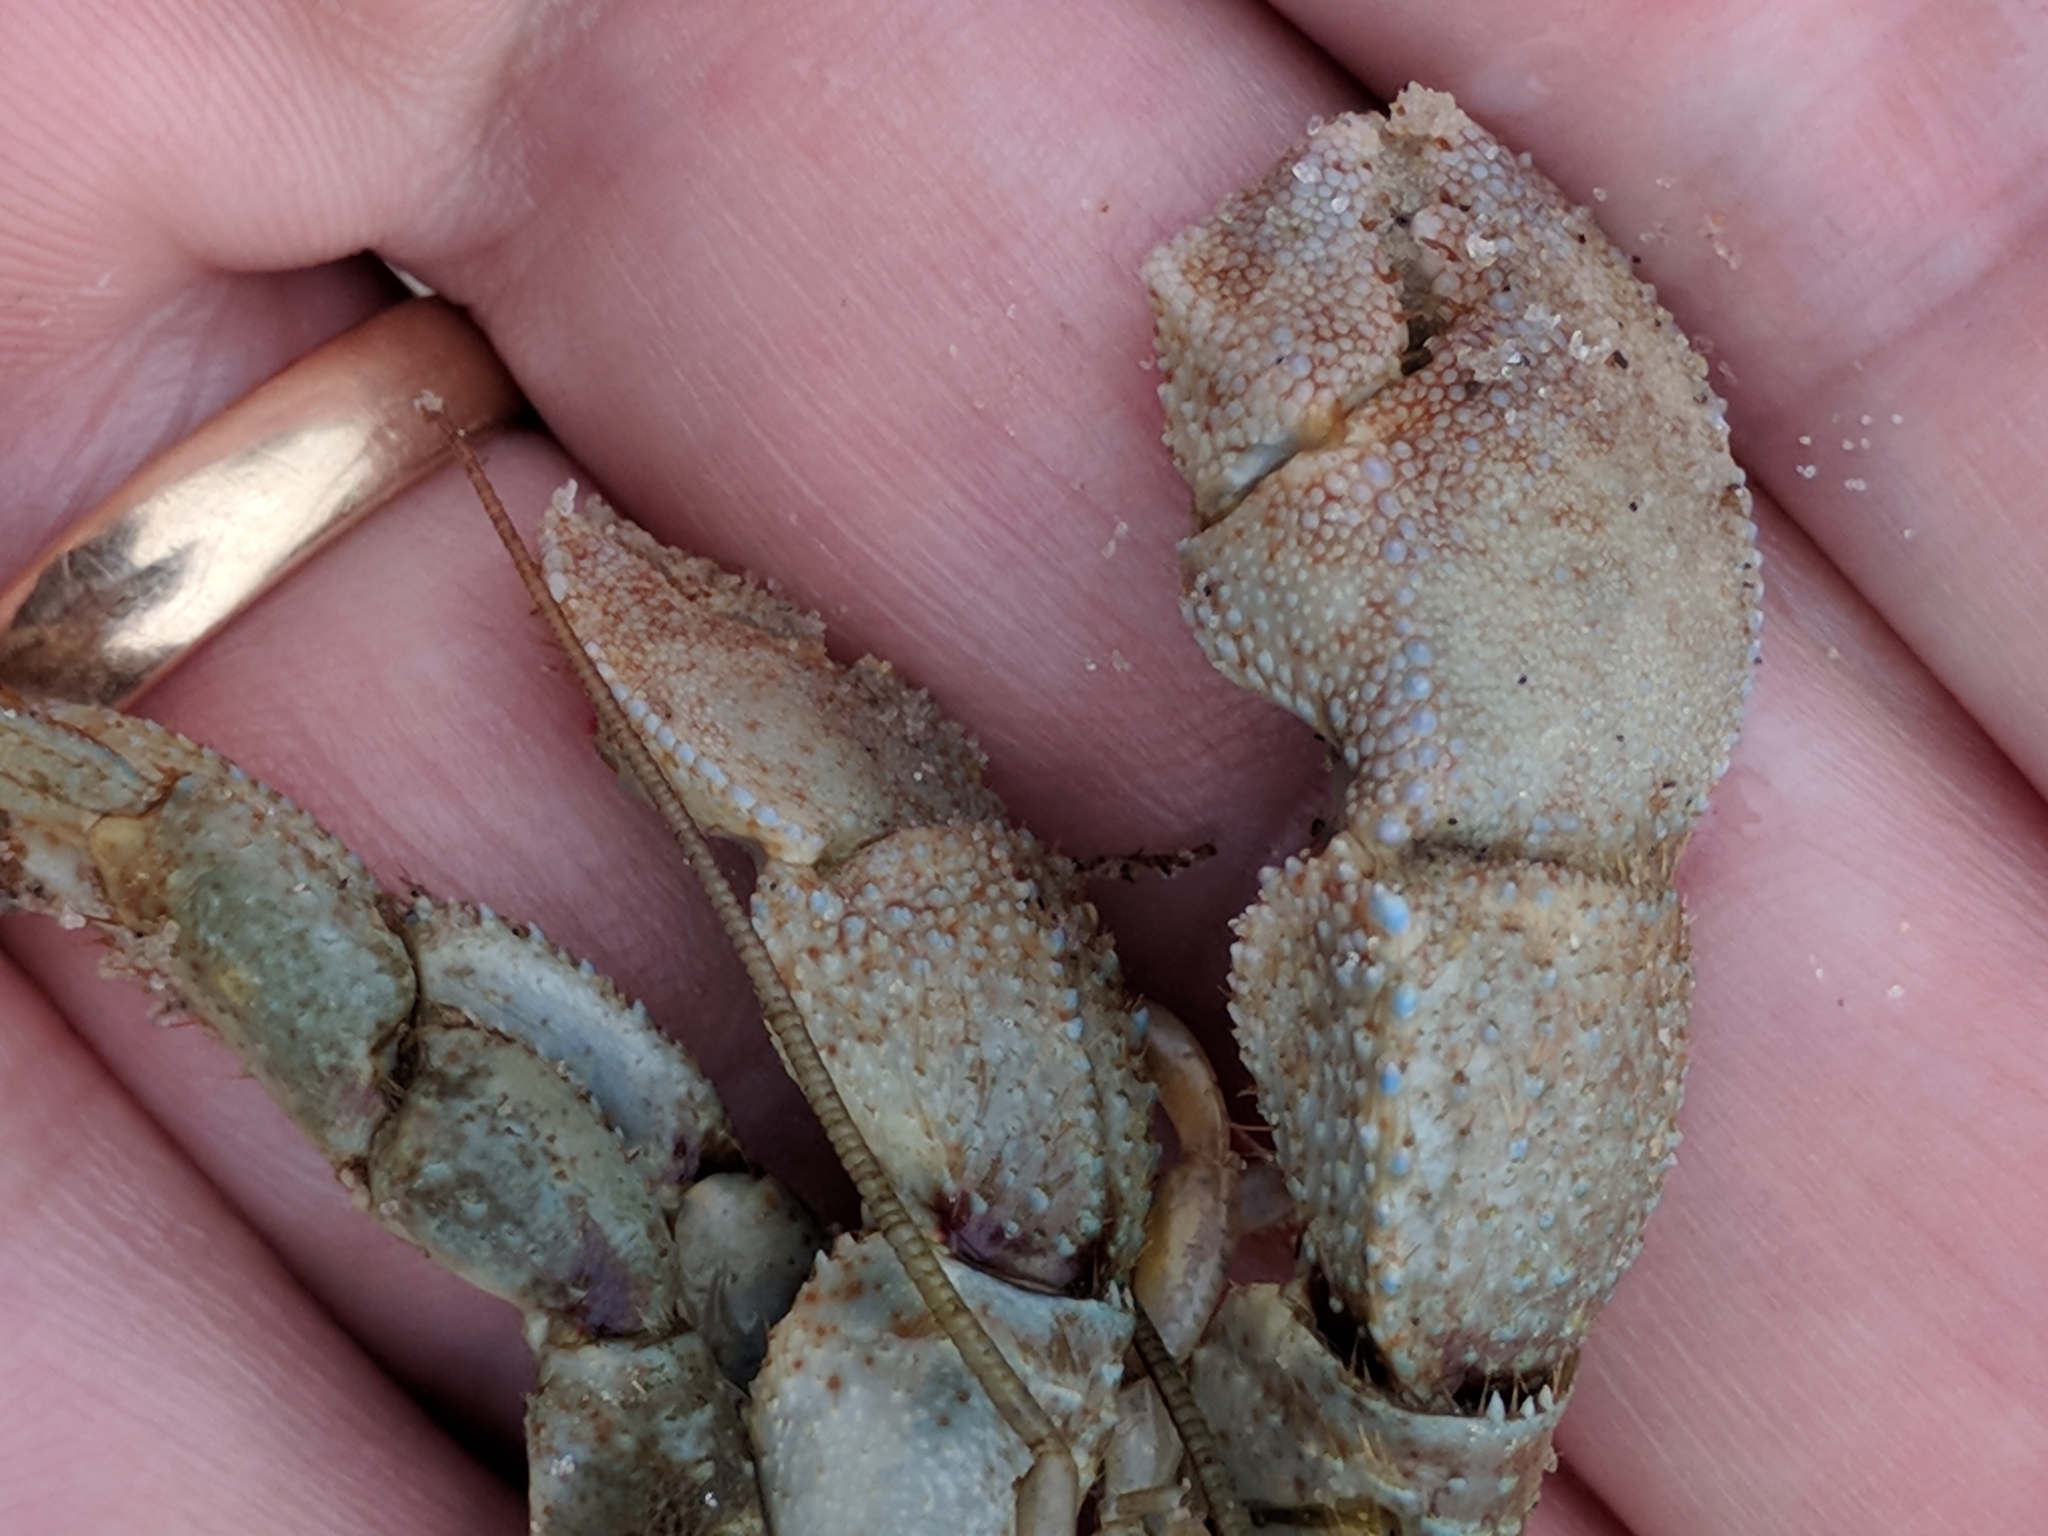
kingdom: Animalia
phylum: Arthropoda
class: Malacostraca
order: Decapoda
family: Paguridae
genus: Pagurus
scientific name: Pagurus pollicaris
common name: Flatclaw hermit
